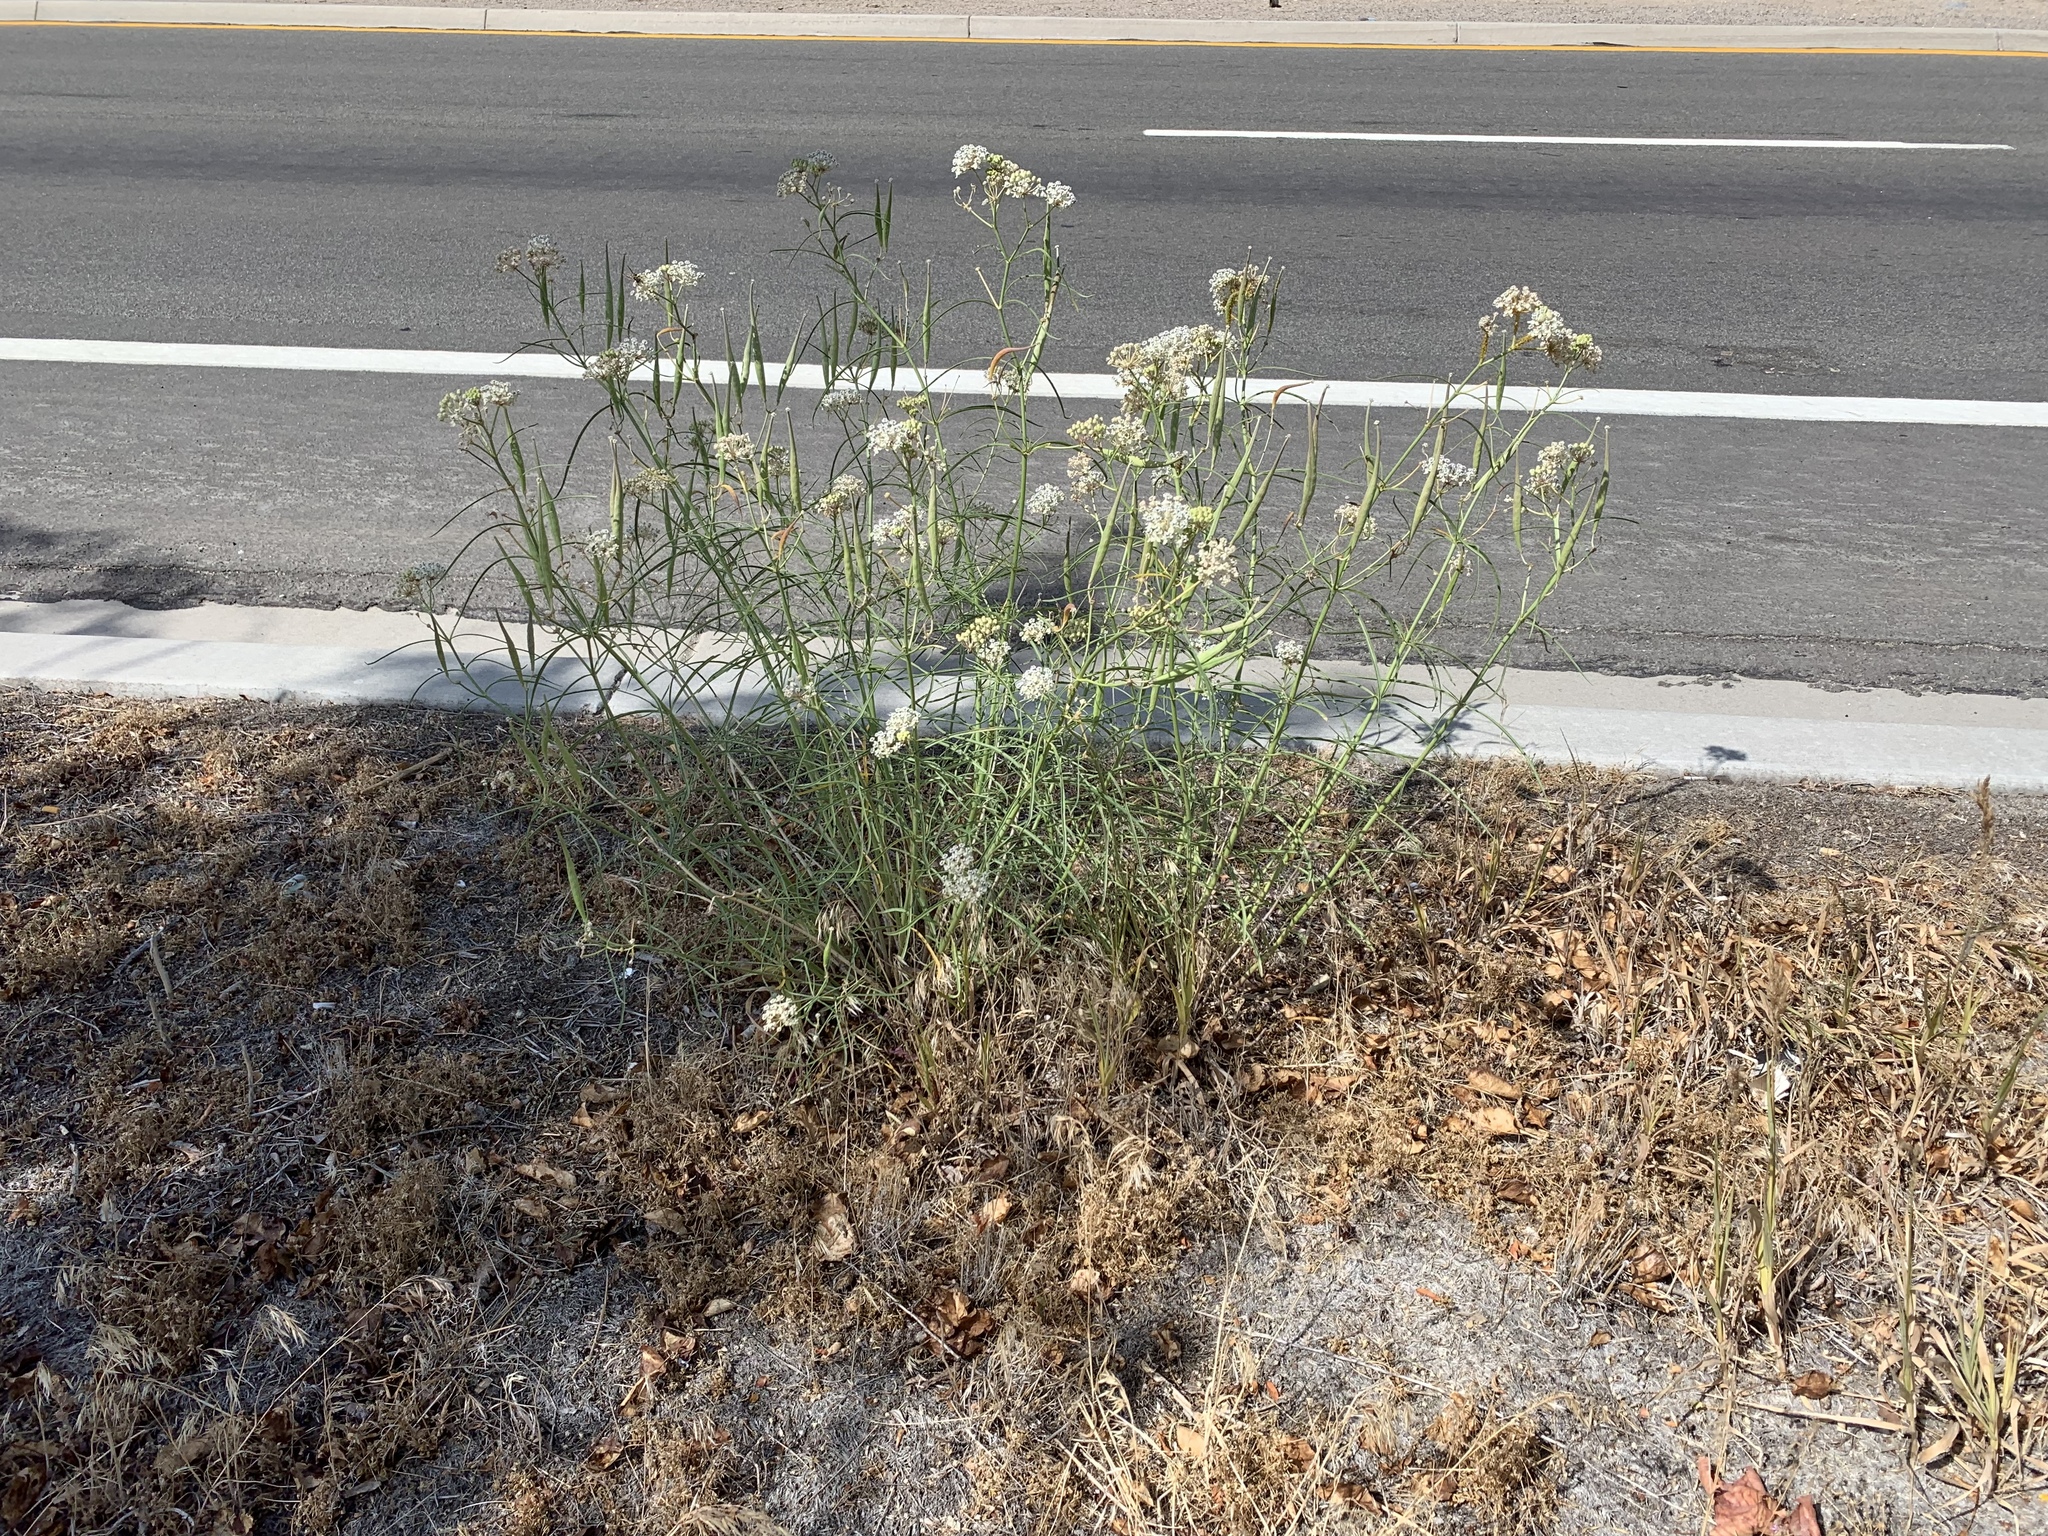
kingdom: Plantae
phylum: Tracheophyta
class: Magnoliopsida
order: Gentianales
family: Apocynaceae
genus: Asclepias
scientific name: Asclepias fascicularis
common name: Mexican milkweed
